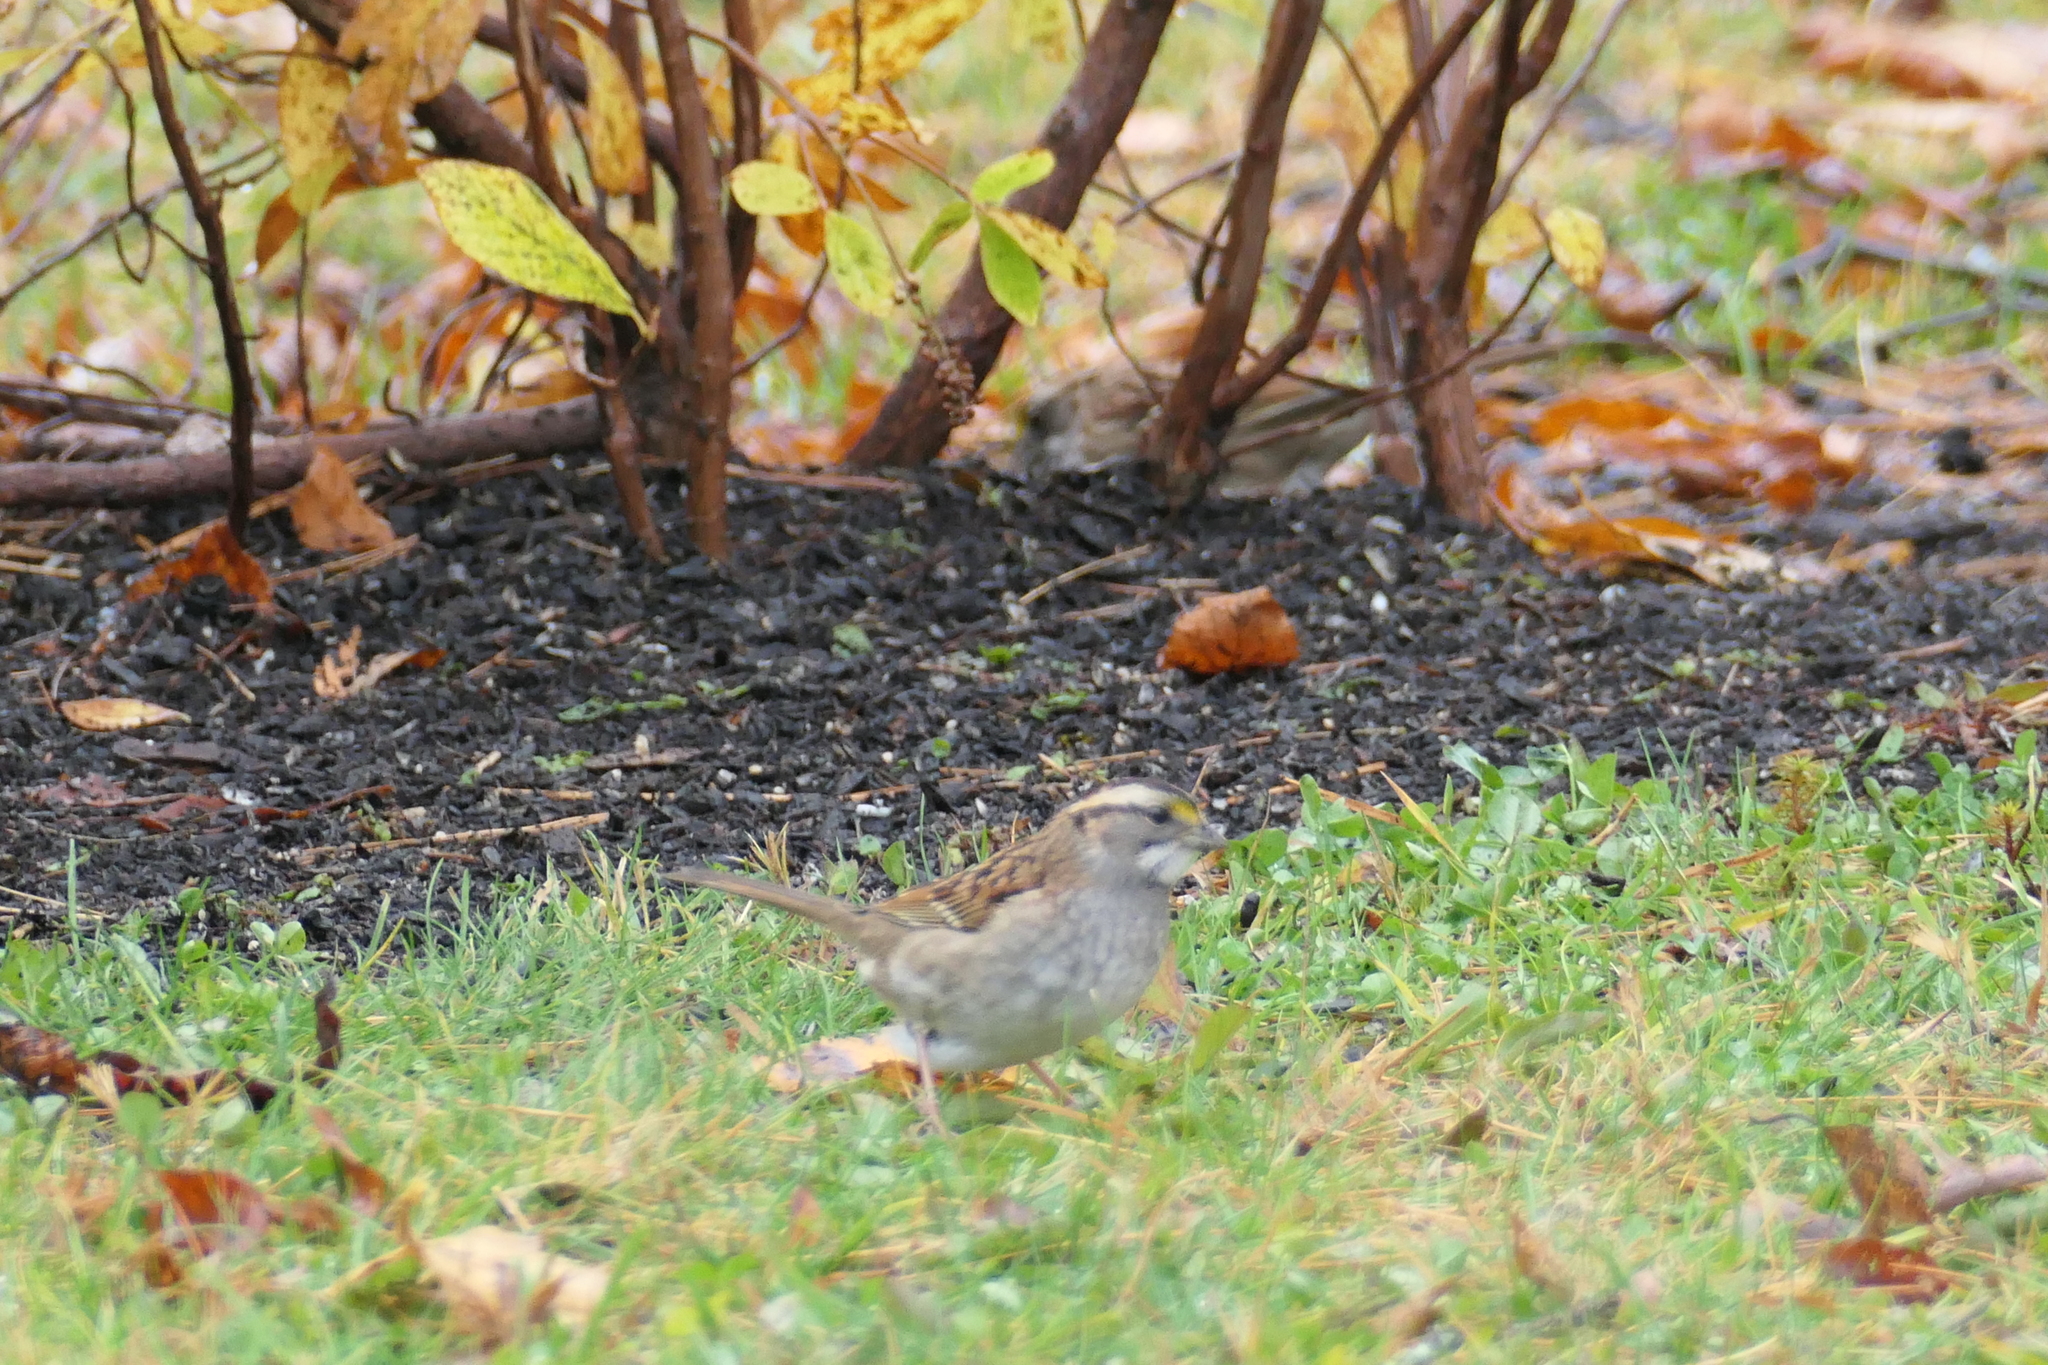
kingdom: Animalia
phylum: Chordata
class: Aves
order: Passeriformes
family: Passerellidae
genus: Zonotrichia
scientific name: Zonotrichia albicollis
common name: White-throated sparrow
